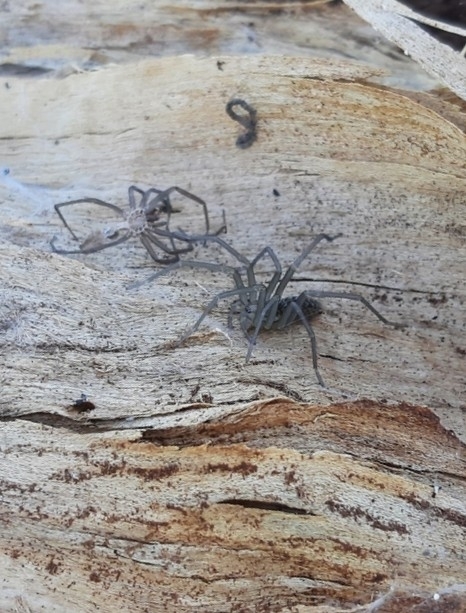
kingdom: Animalia
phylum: Arthropoda
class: Arachnida
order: Araneae
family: Agelenidae
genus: Eratigena
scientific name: Eratigena
